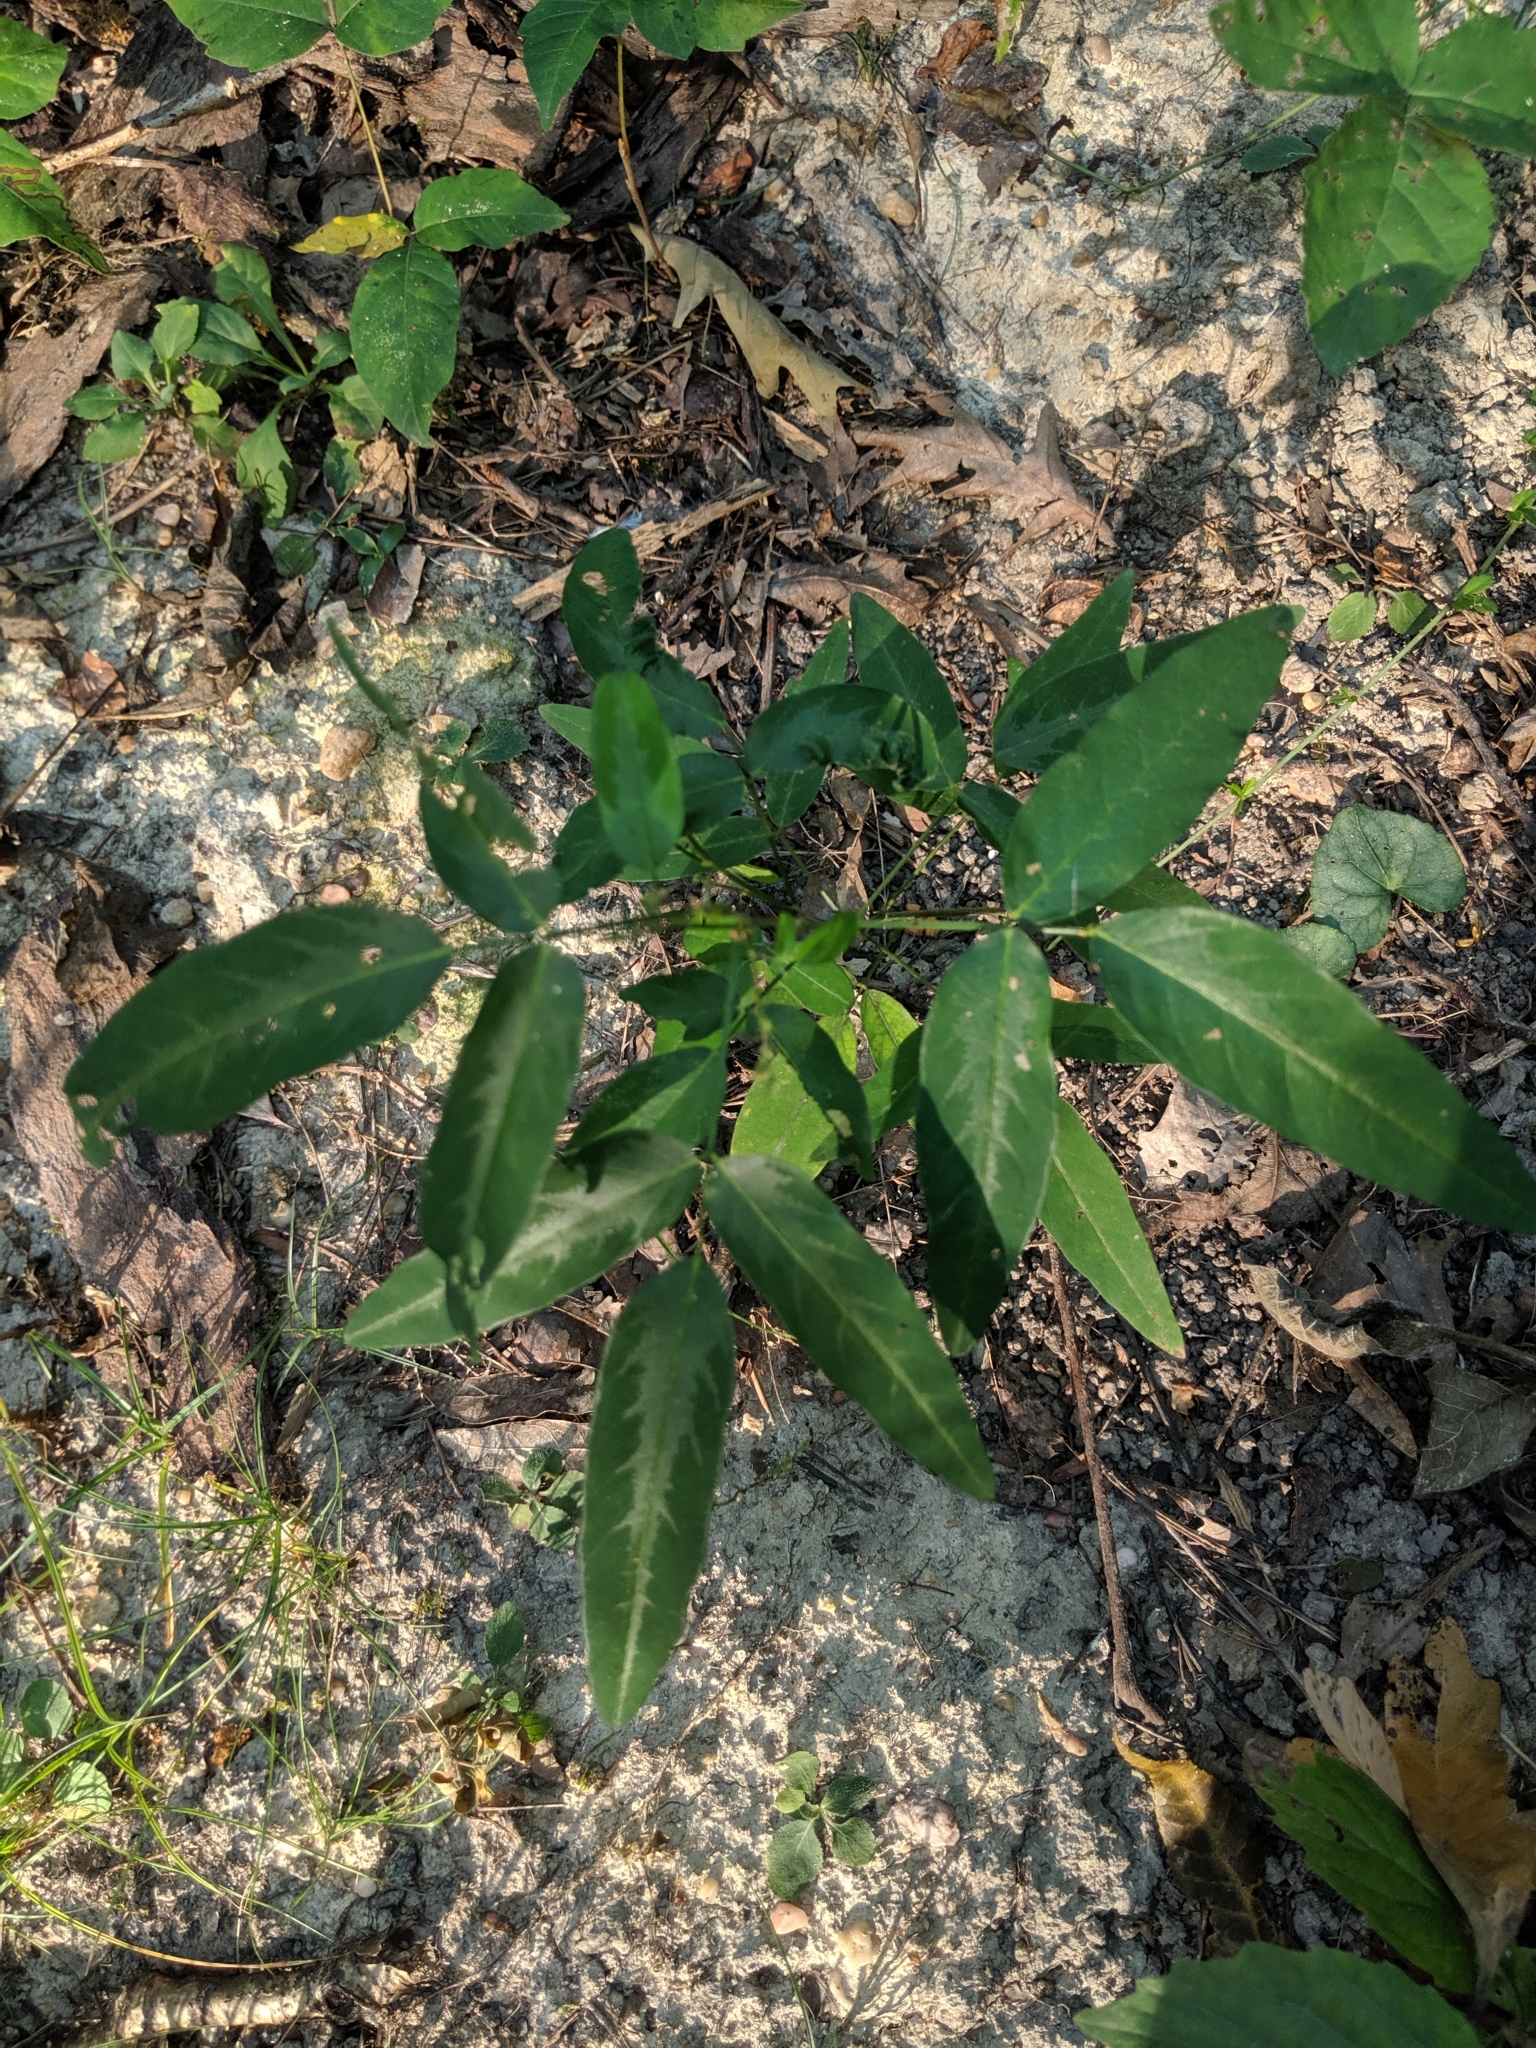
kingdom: Plantae
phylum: Tracheophyta
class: Magnoliopsida
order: Fabales
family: Fabaceae
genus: Desmodium
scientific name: Desmodium paniculatum
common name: Panicled tick-clover
